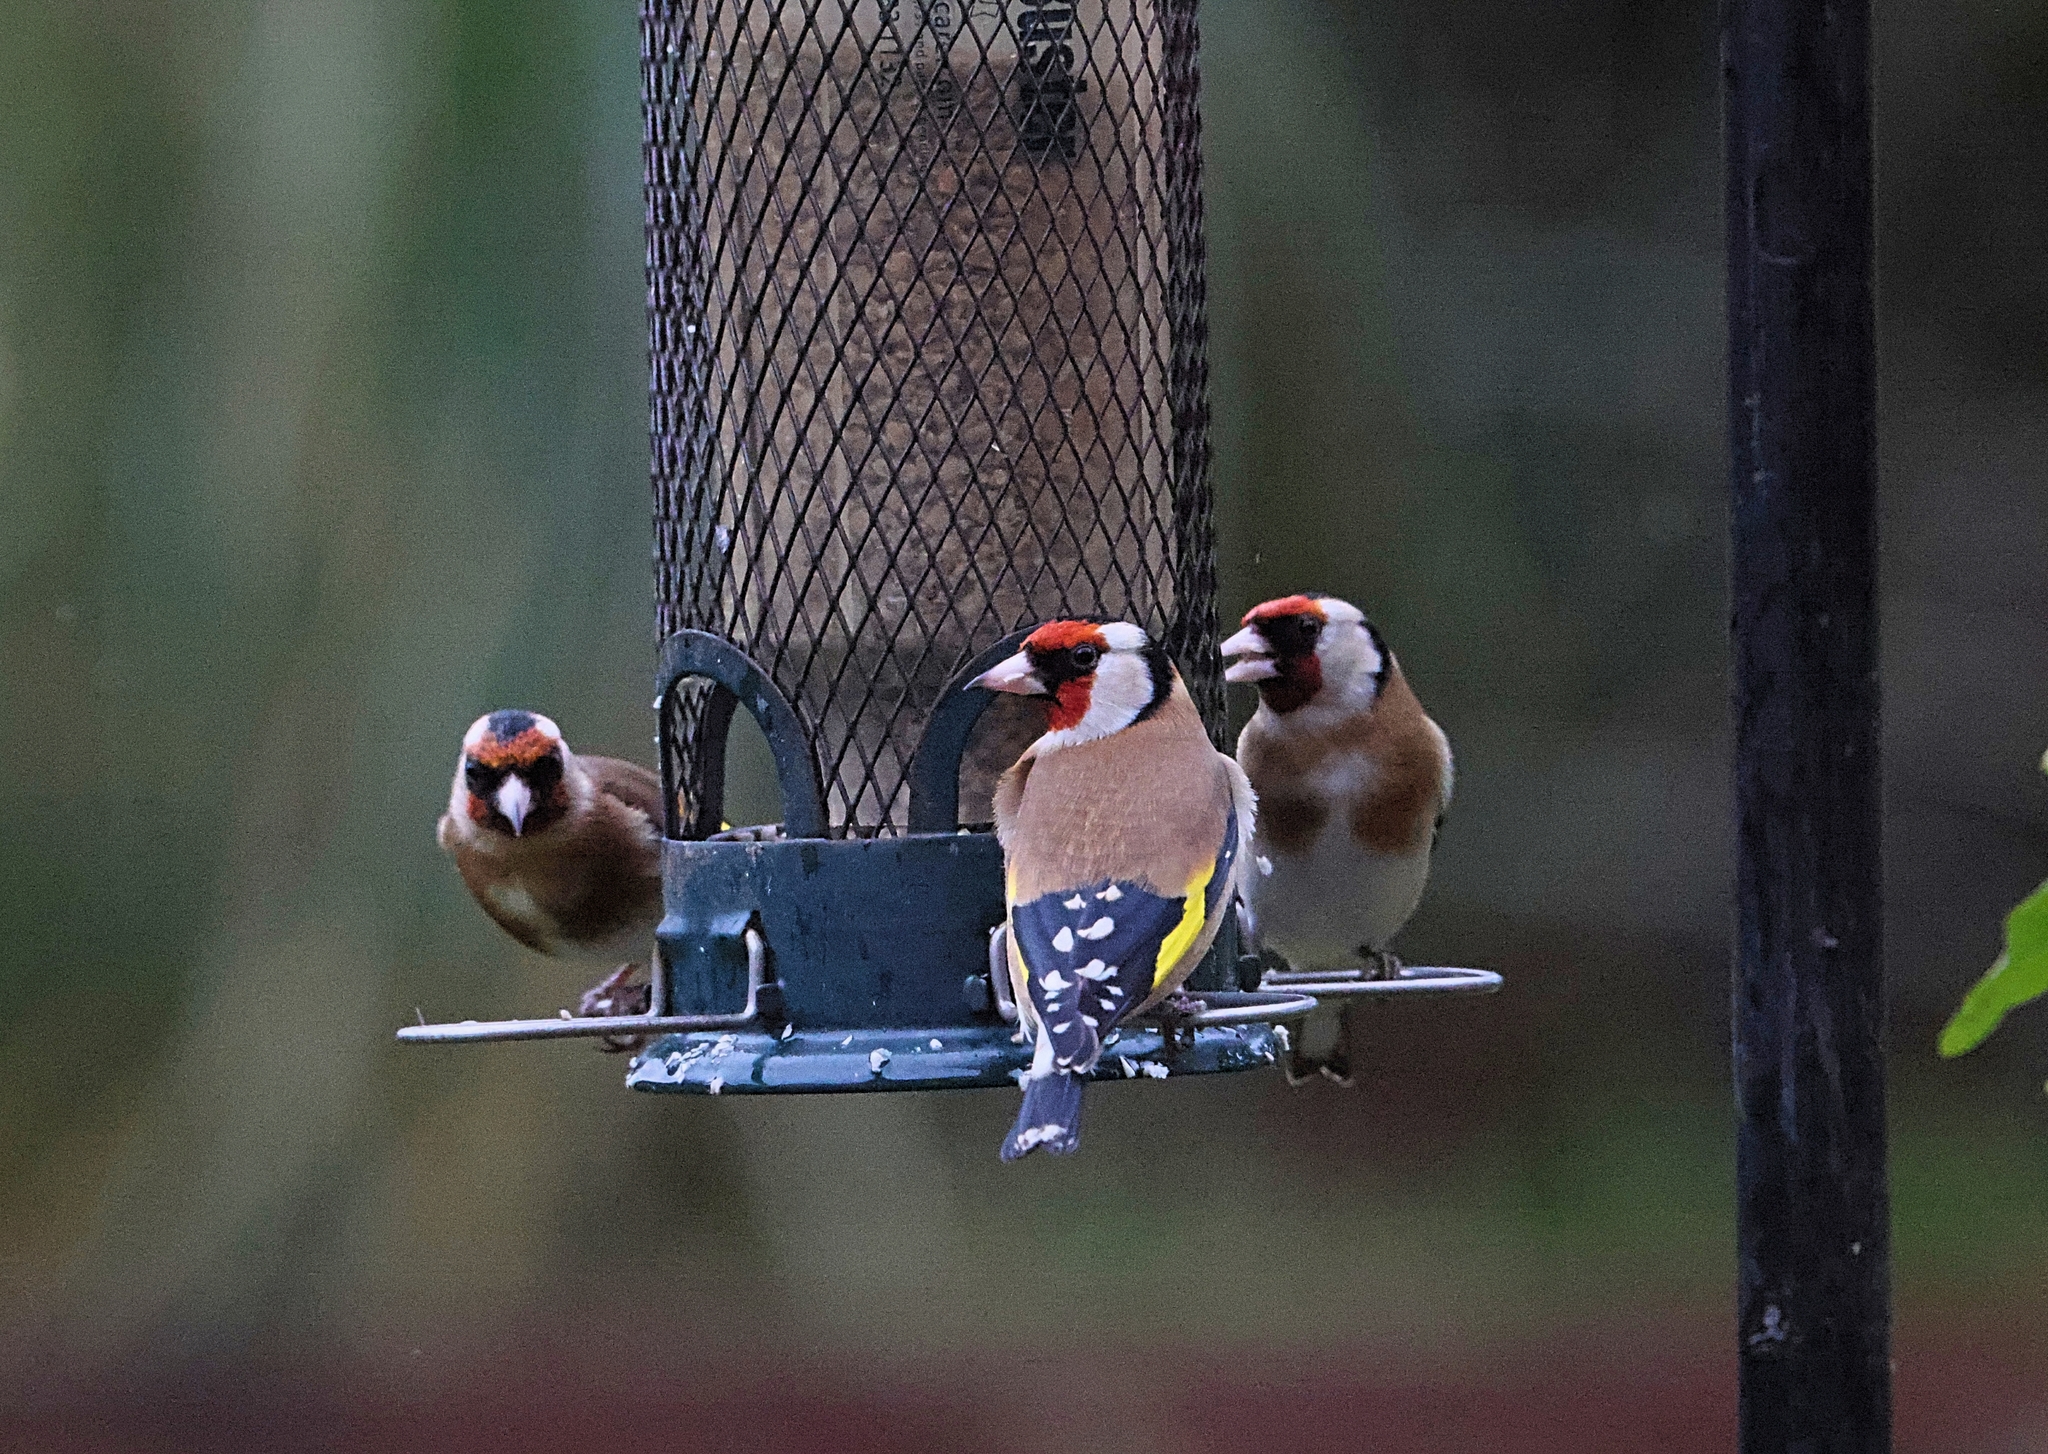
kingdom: Animalia
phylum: Chordata
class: Aves
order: Passeriformes
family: Fringillidae
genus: Carduelis
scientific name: Carduelis carduelis
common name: European goldfinch
